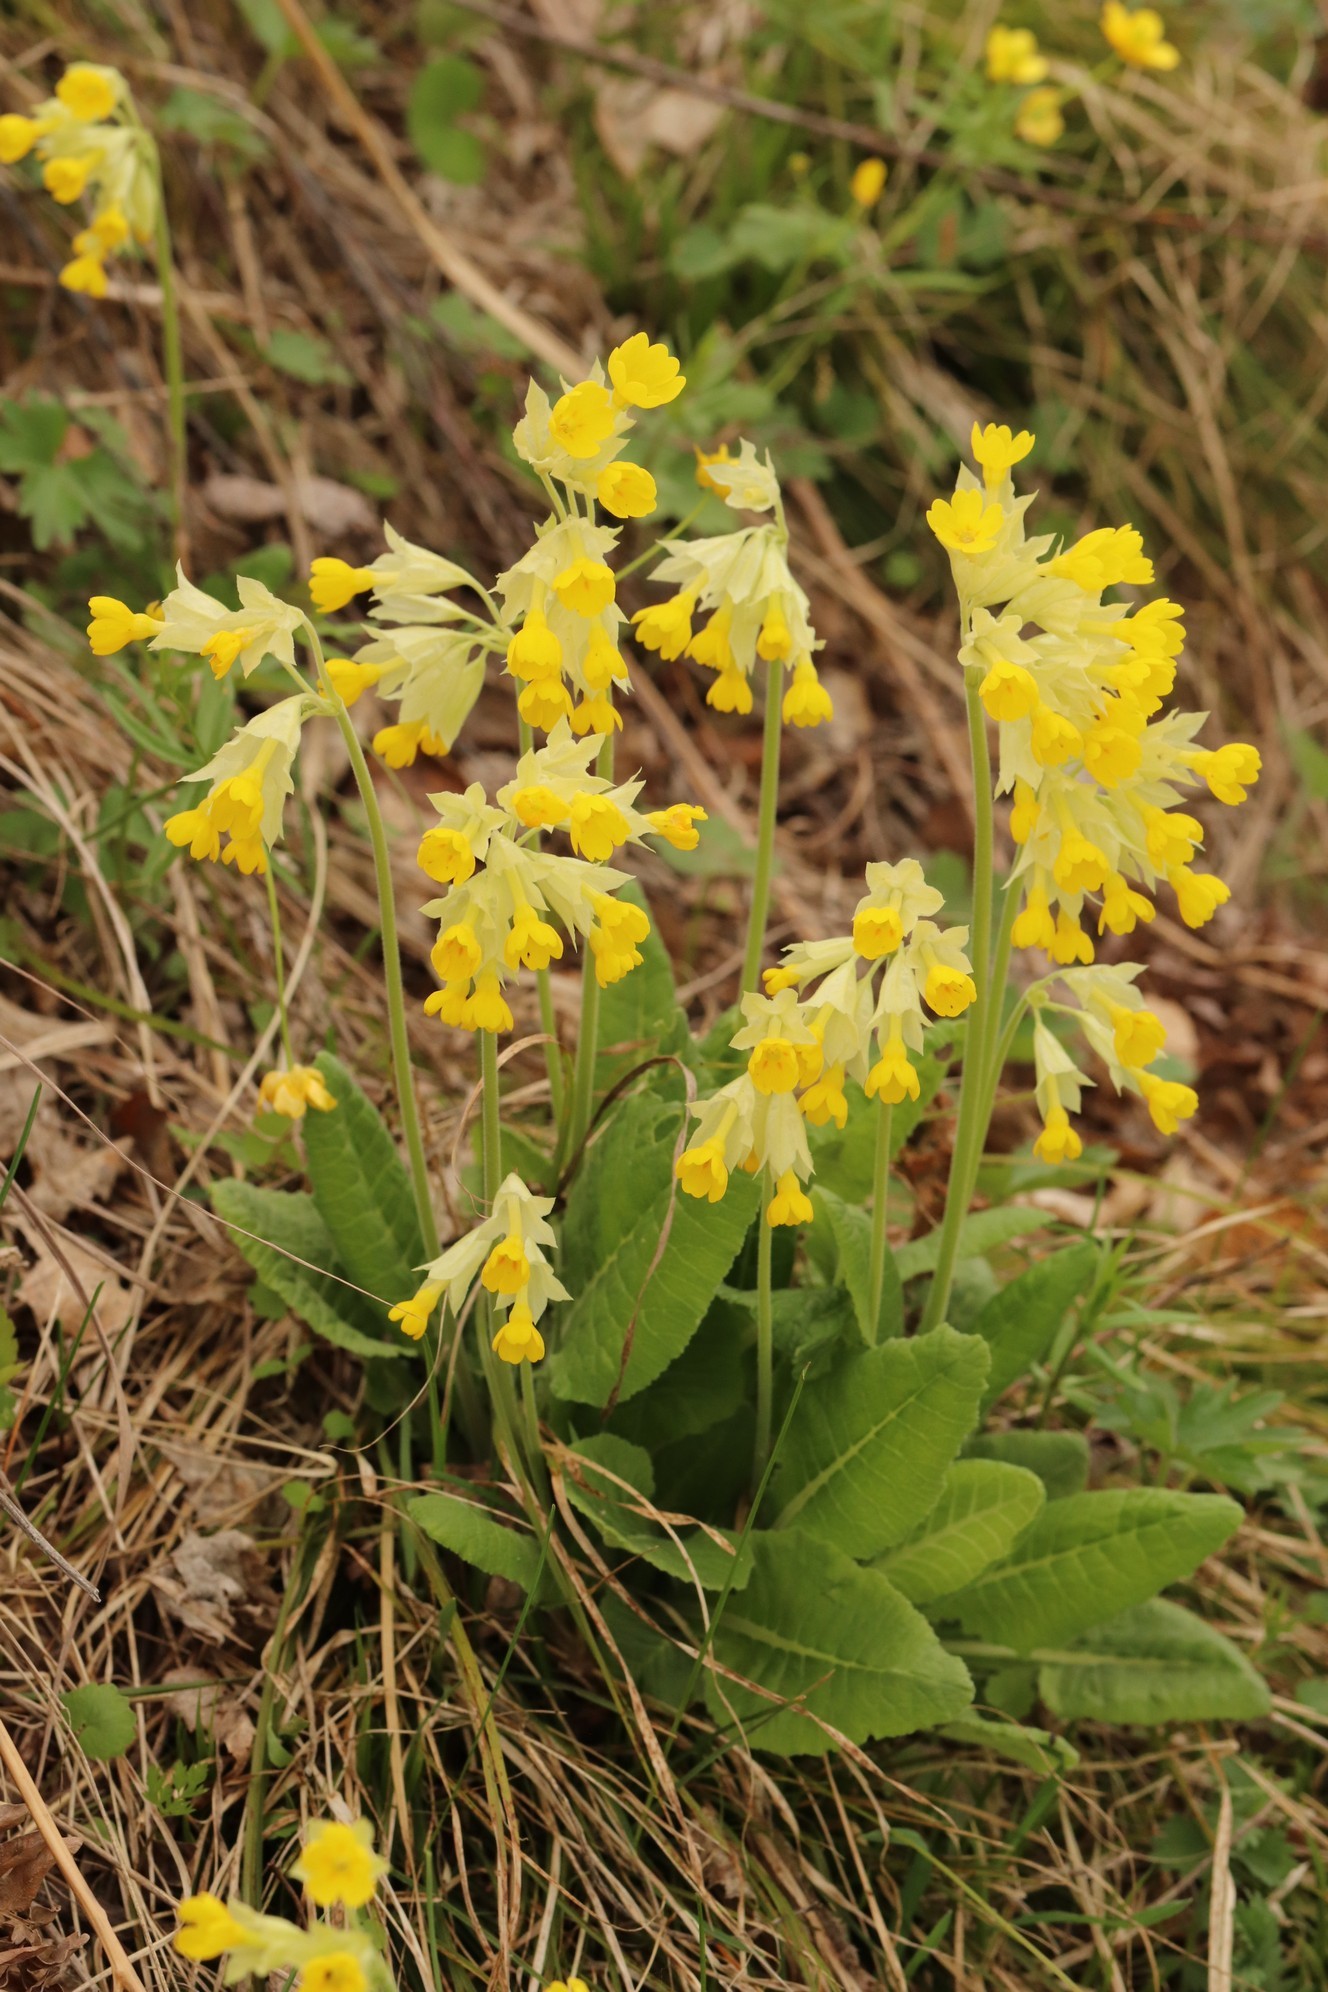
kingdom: Plantae
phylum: Tracheophyta
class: Magnoliopsida
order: Ericales
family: Primulaceae
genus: Primula
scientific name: Primula veris
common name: Cowslip
